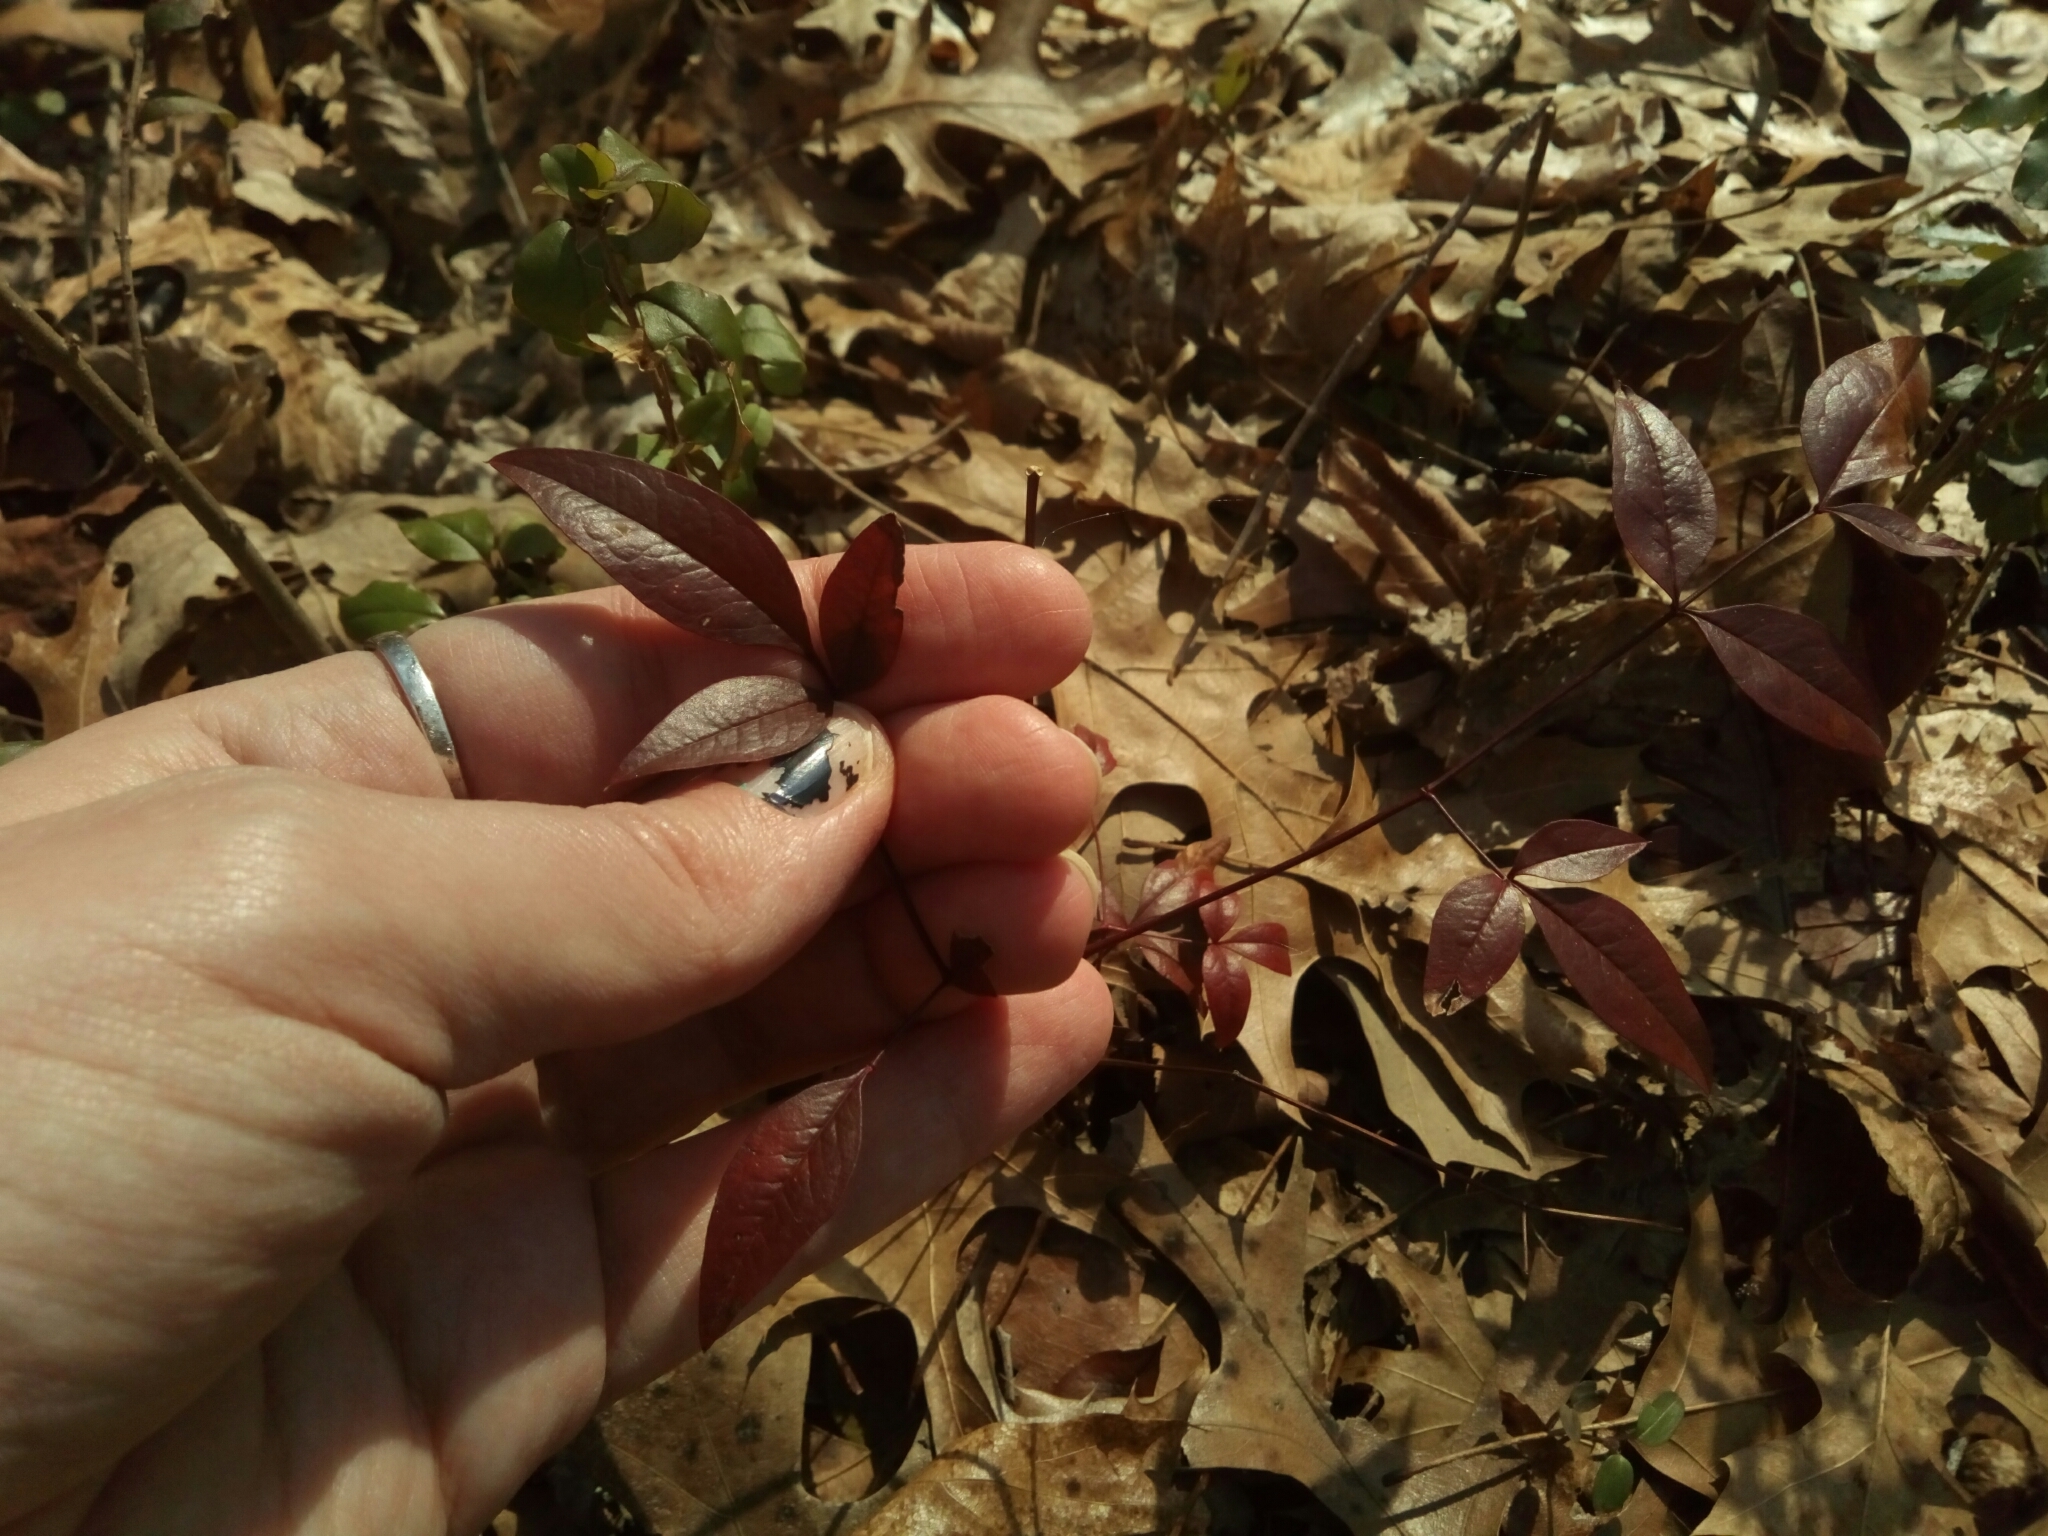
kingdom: Plantae
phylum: Tracheophyta
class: Magnoliopsida
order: Ranunculales
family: Berberidaceae
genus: Nandina
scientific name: Nandina domestica
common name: Sacred bamboo
